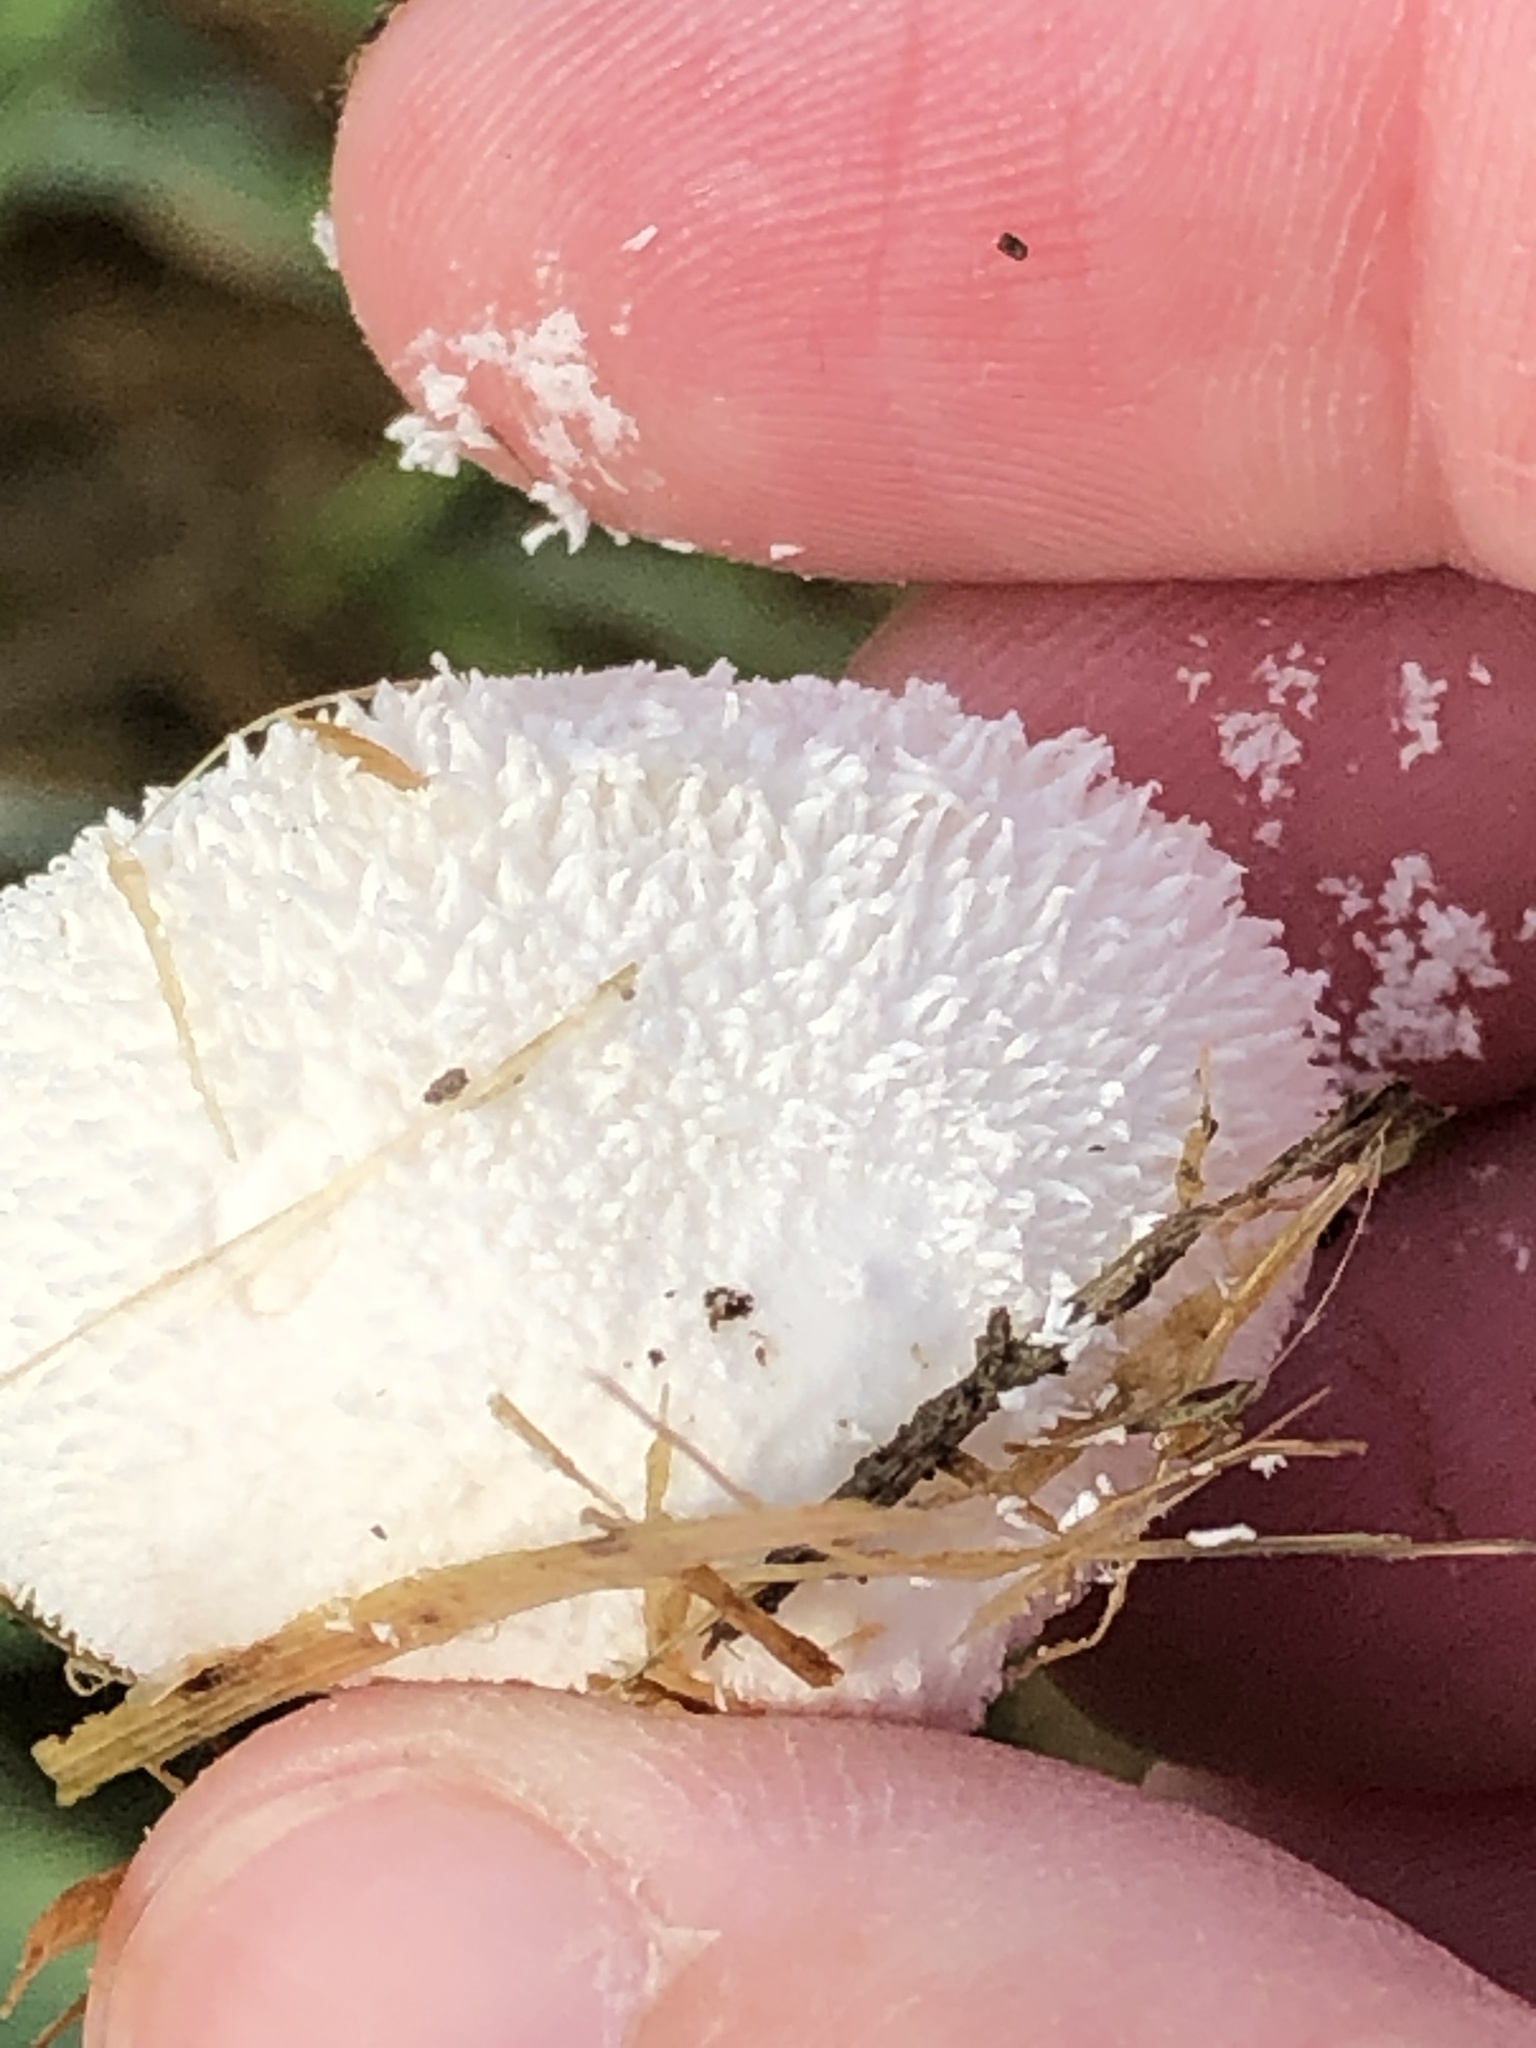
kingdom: Fungi
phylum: Basidiomycota
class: Agaricomycetes
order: Agaricales
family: Lycoperdaceae
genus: Lycoperdon
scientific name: Lycoperdon curtisii
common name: Curtis's puffball
